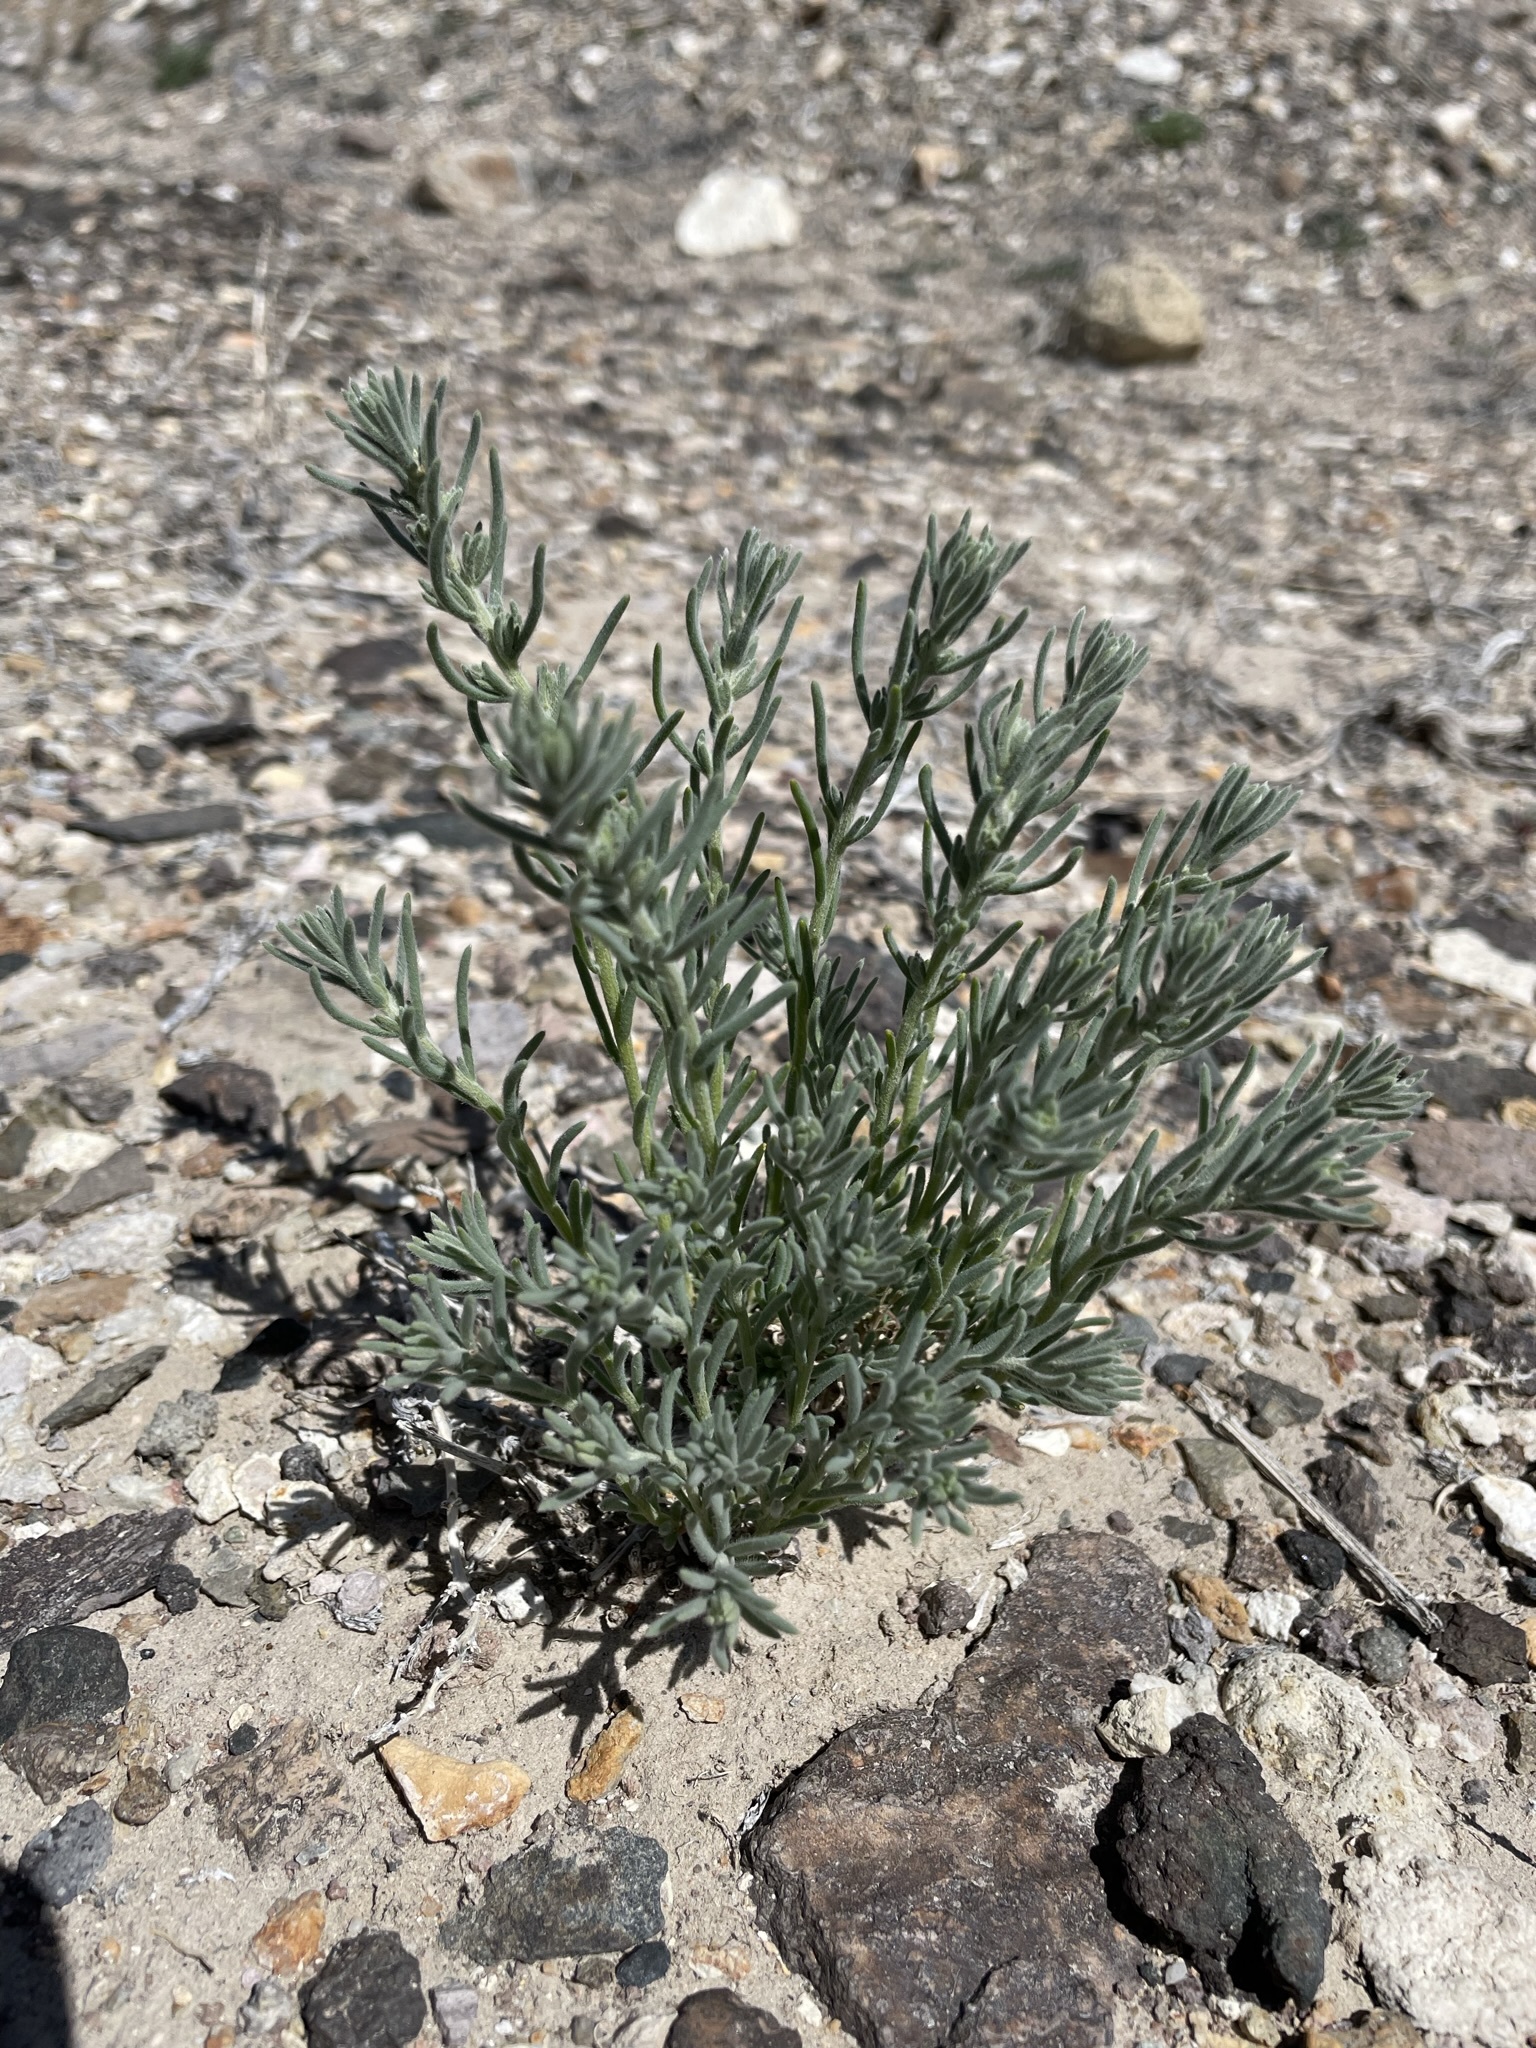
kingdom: Plantae
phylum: Tracheophyta
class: Magnoliopsida
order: Caryophyllales
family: Amaranthaceae
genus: Neokochia
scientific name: Neokochia americana
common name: Perennial summer-cypress
